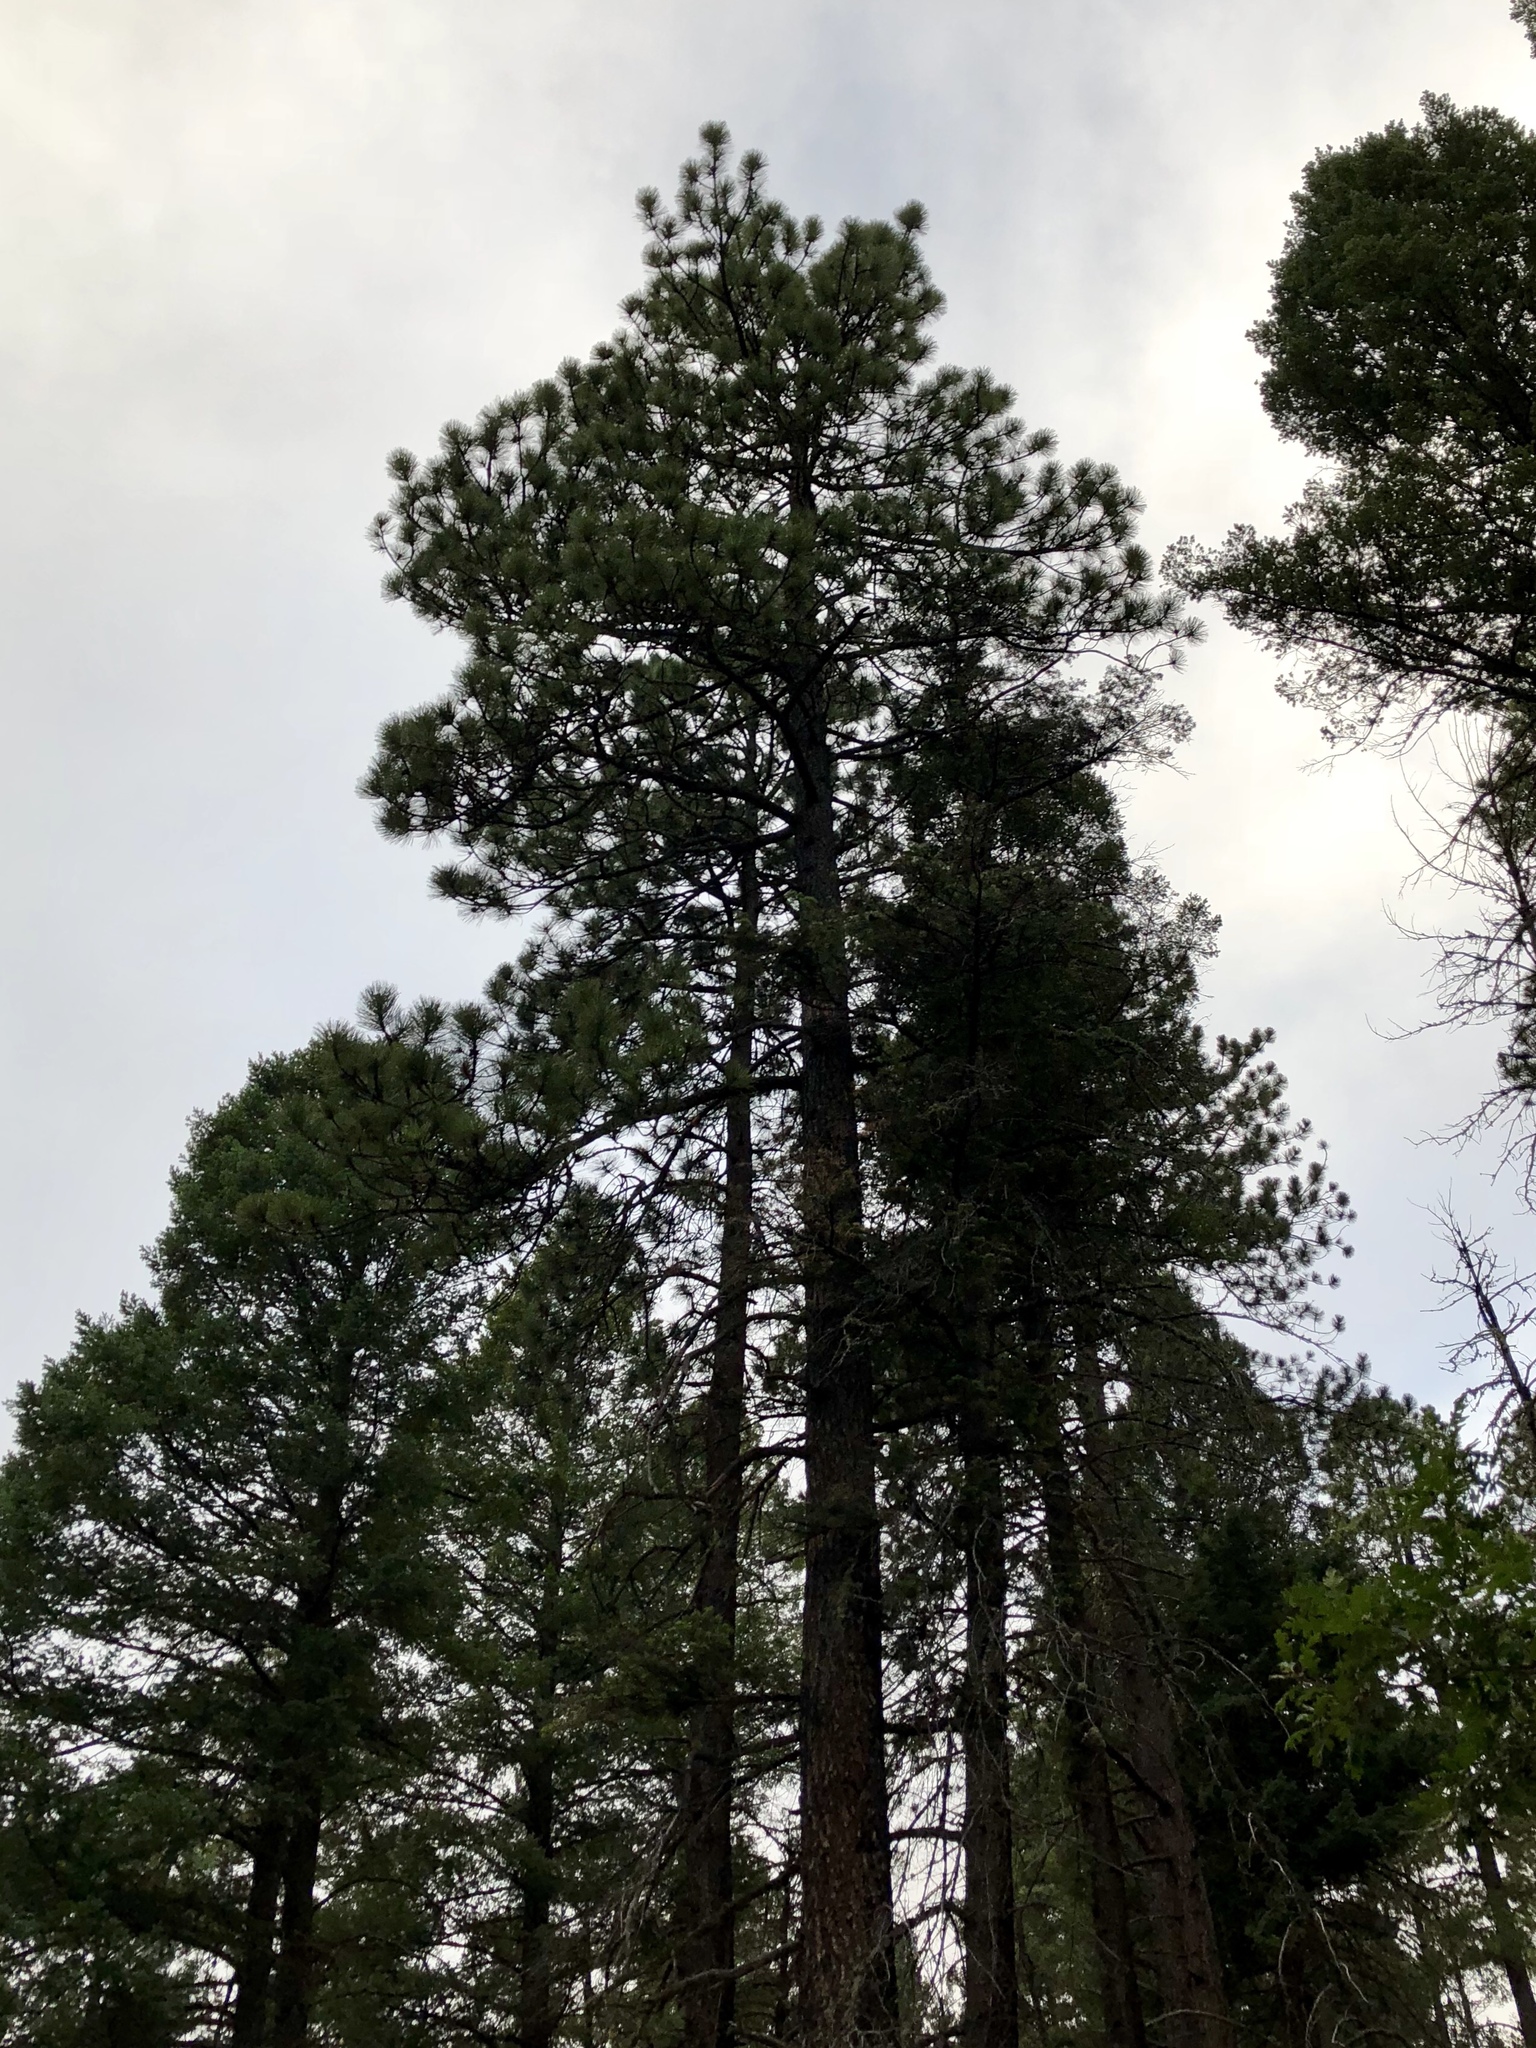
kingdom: Plantae
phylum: Tracheophyta
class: Pinopsida
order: Pinales
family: Pinaceae
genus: Pinus
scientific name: Pinus ponderosa
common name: Western yellow-pine
